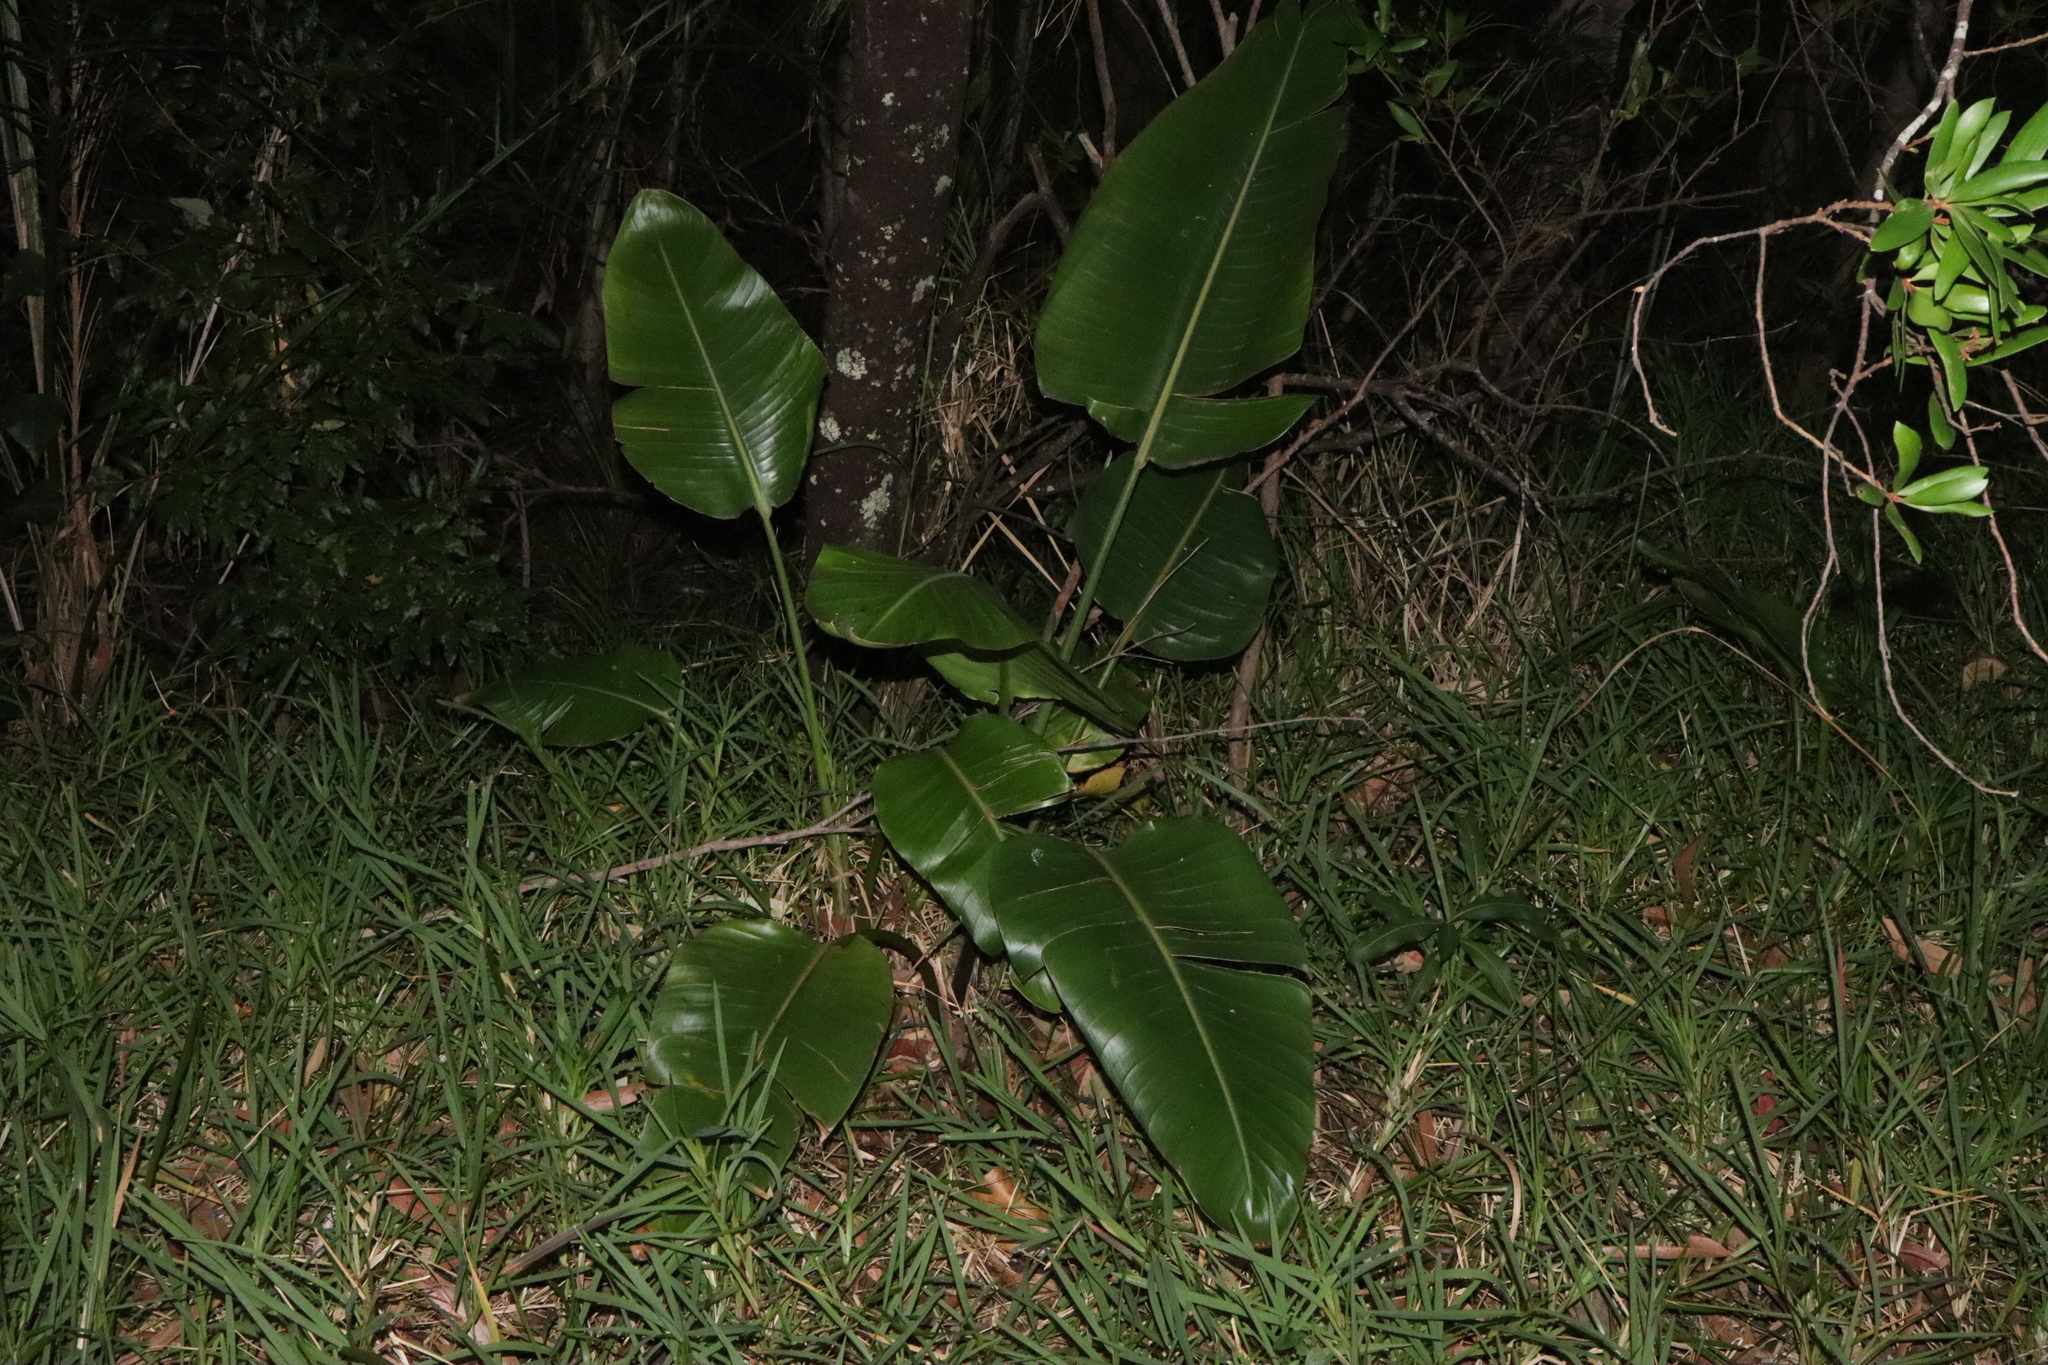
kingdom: Plantae
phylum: Tracheophyta
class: Liliopsida
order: Zingiberales
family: Strelitziaceae
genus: Strelitzia
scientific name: Strelitzia nicolai
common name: Bird-of-paradise tree
